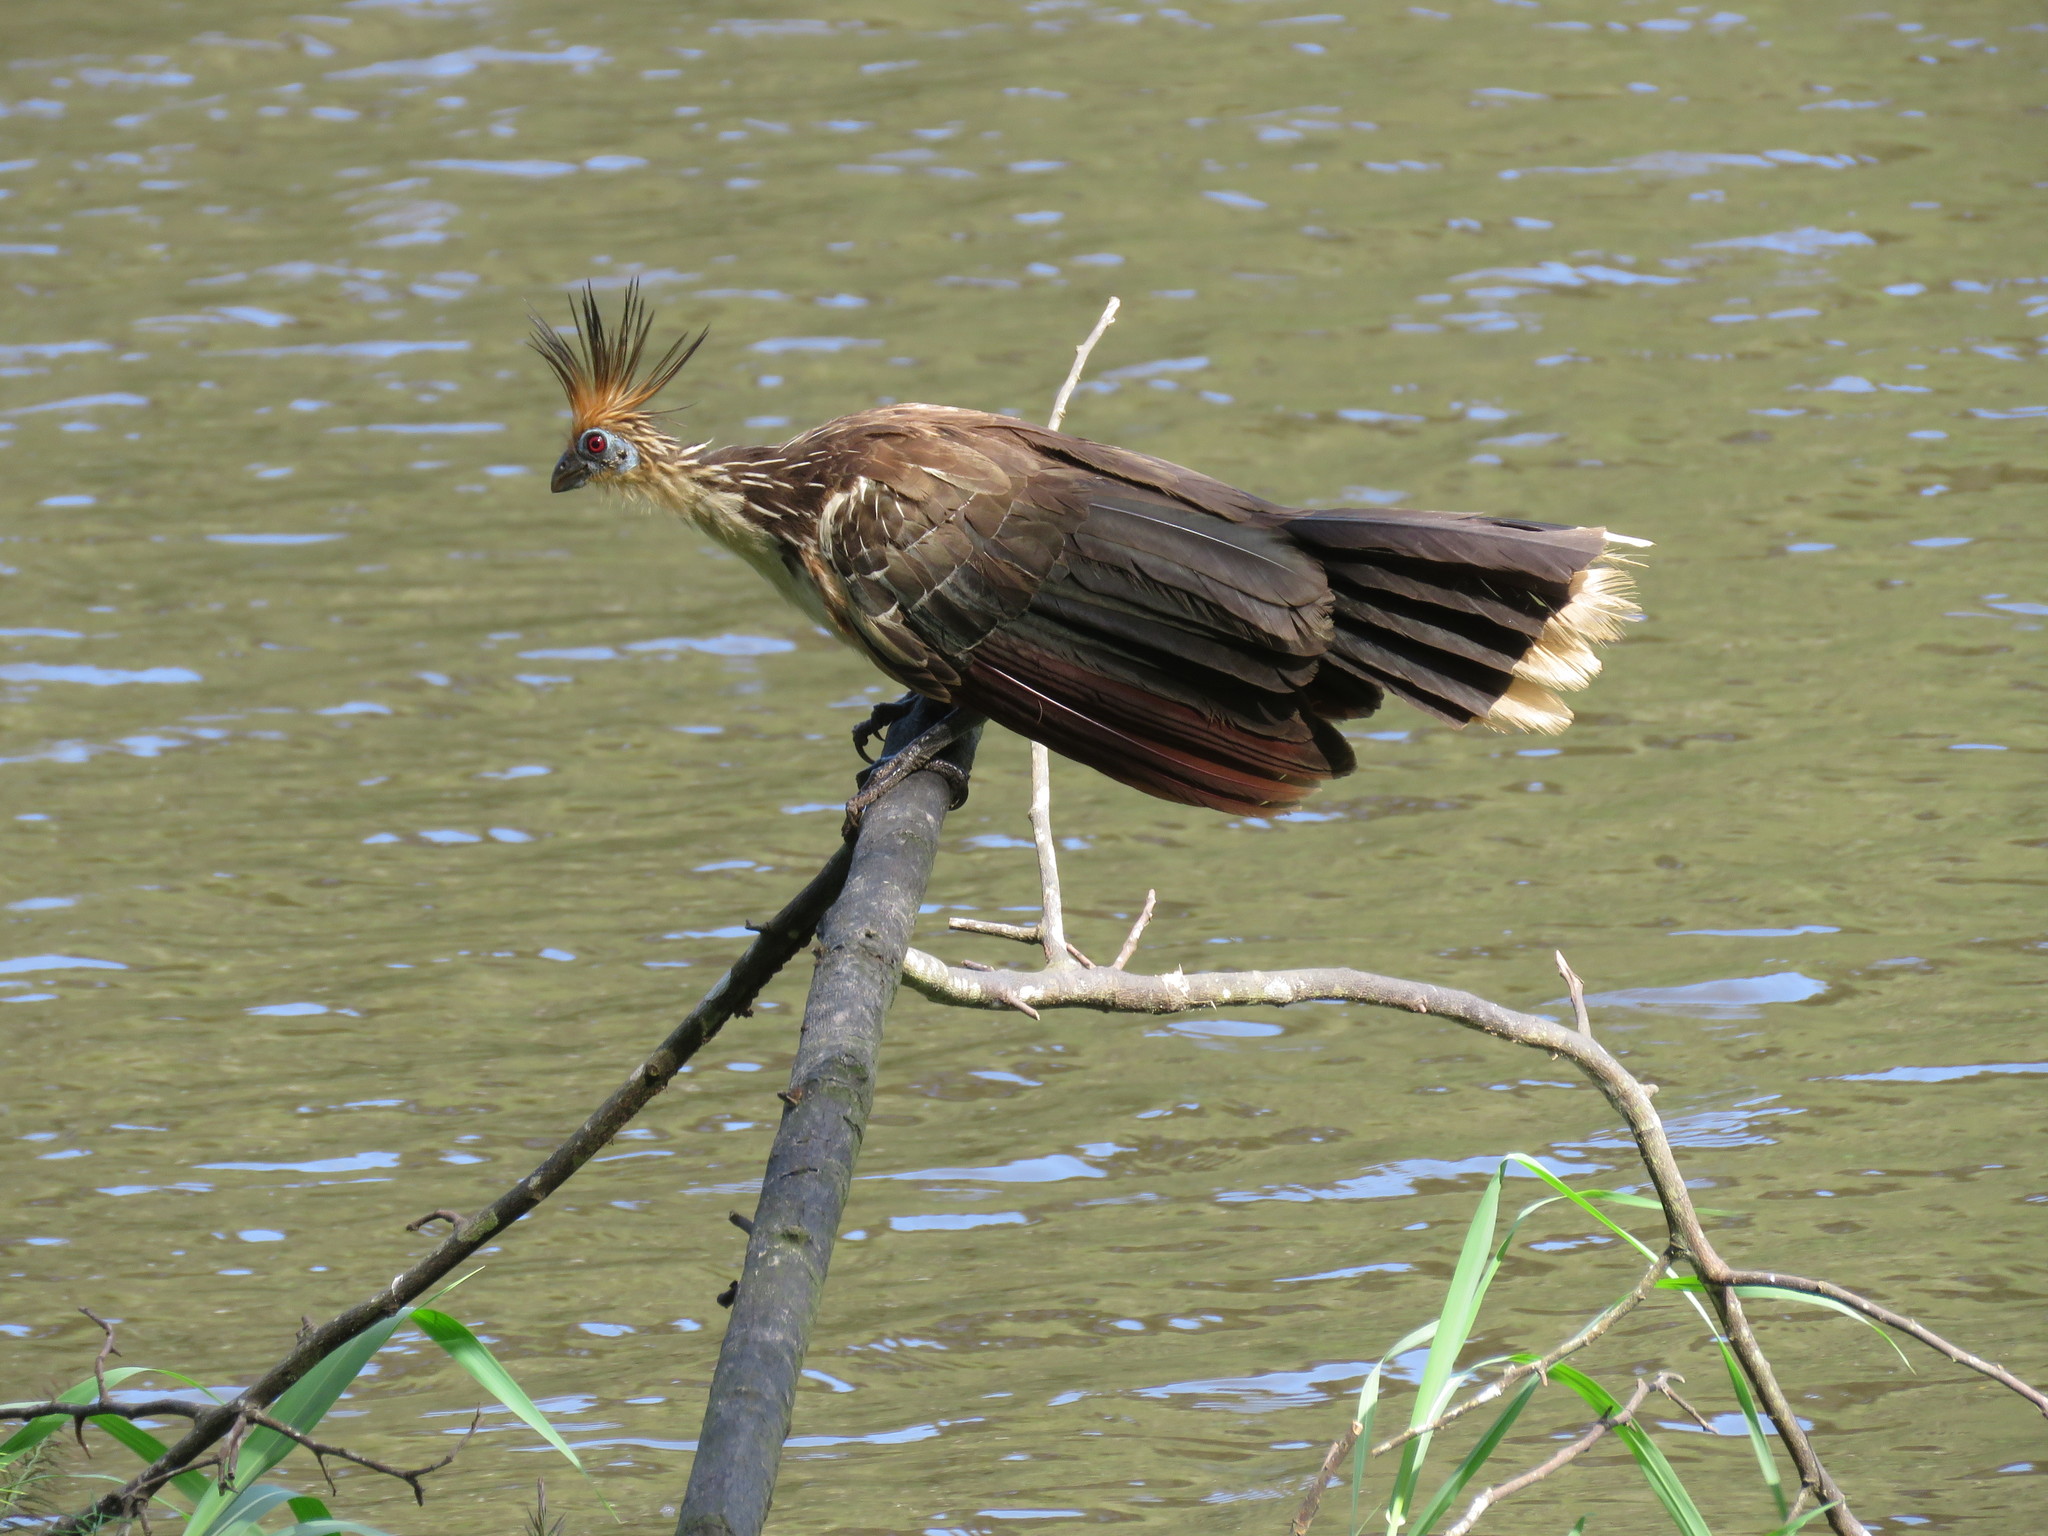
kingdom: Animalia
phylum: Chordata
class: Aves
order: Opisthocomiformes
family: Opisthocomidae
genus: Opisthocomus
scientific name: Opisthocomus hoazin
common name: Hoatzin
